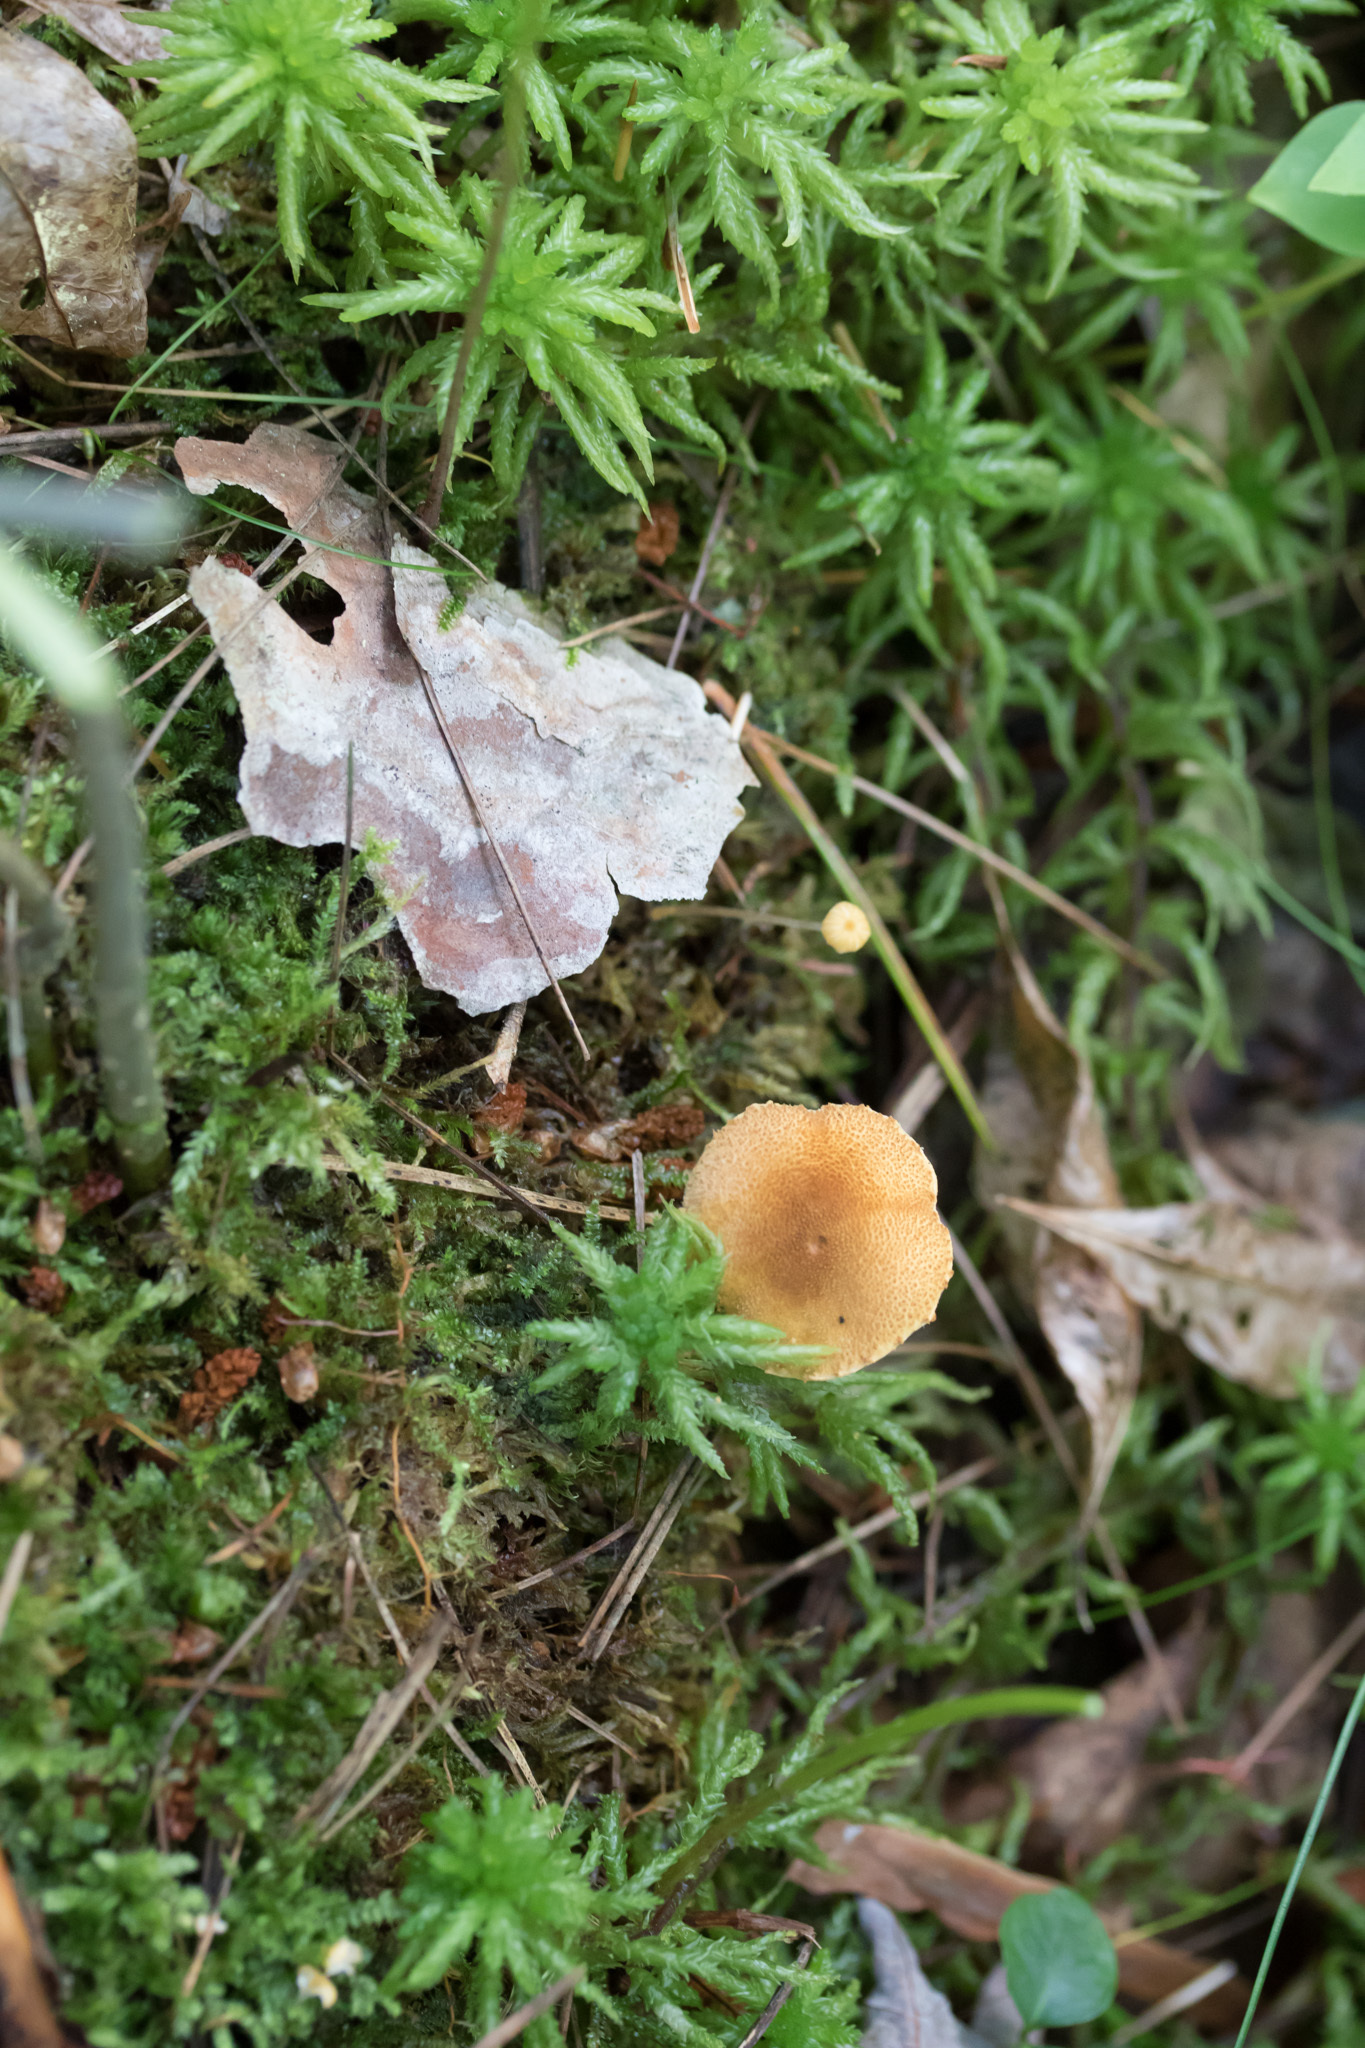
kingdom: Fungi
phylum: Basidiomycota
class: Agaricomycetes
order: Agaricales
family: Tricholomataceae
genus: Tricholomopsis
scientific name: Tricholomopsis decora
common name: Prunes and custard
